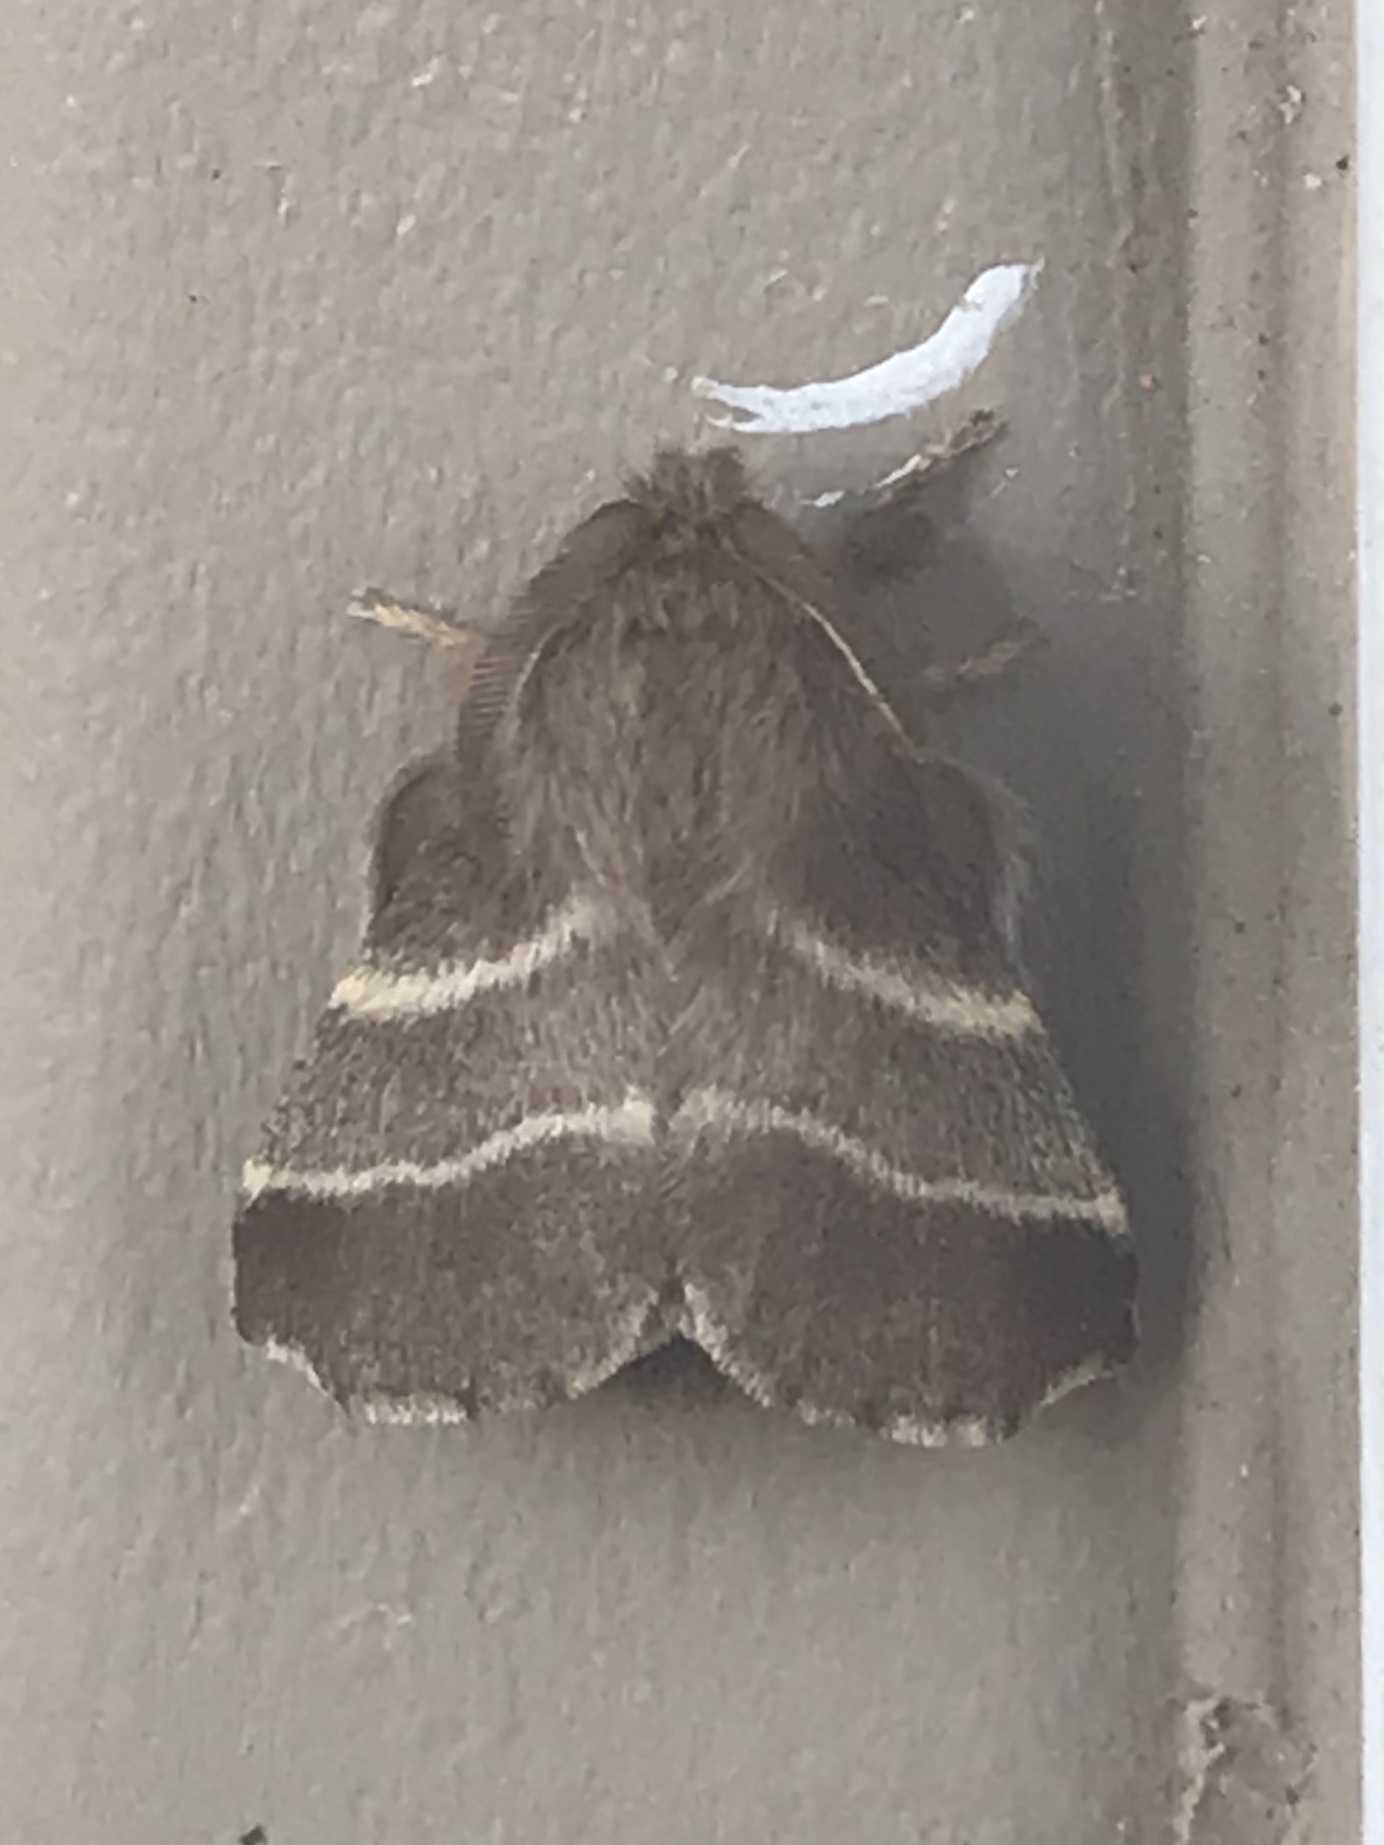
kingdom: Animalia
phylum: Arthropoda
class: Insecta
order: Lepidoptera
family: Lasiocampidae
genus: Malacosoma
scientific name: Malacosoma americana
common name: Eastern tent caterpillar moth
